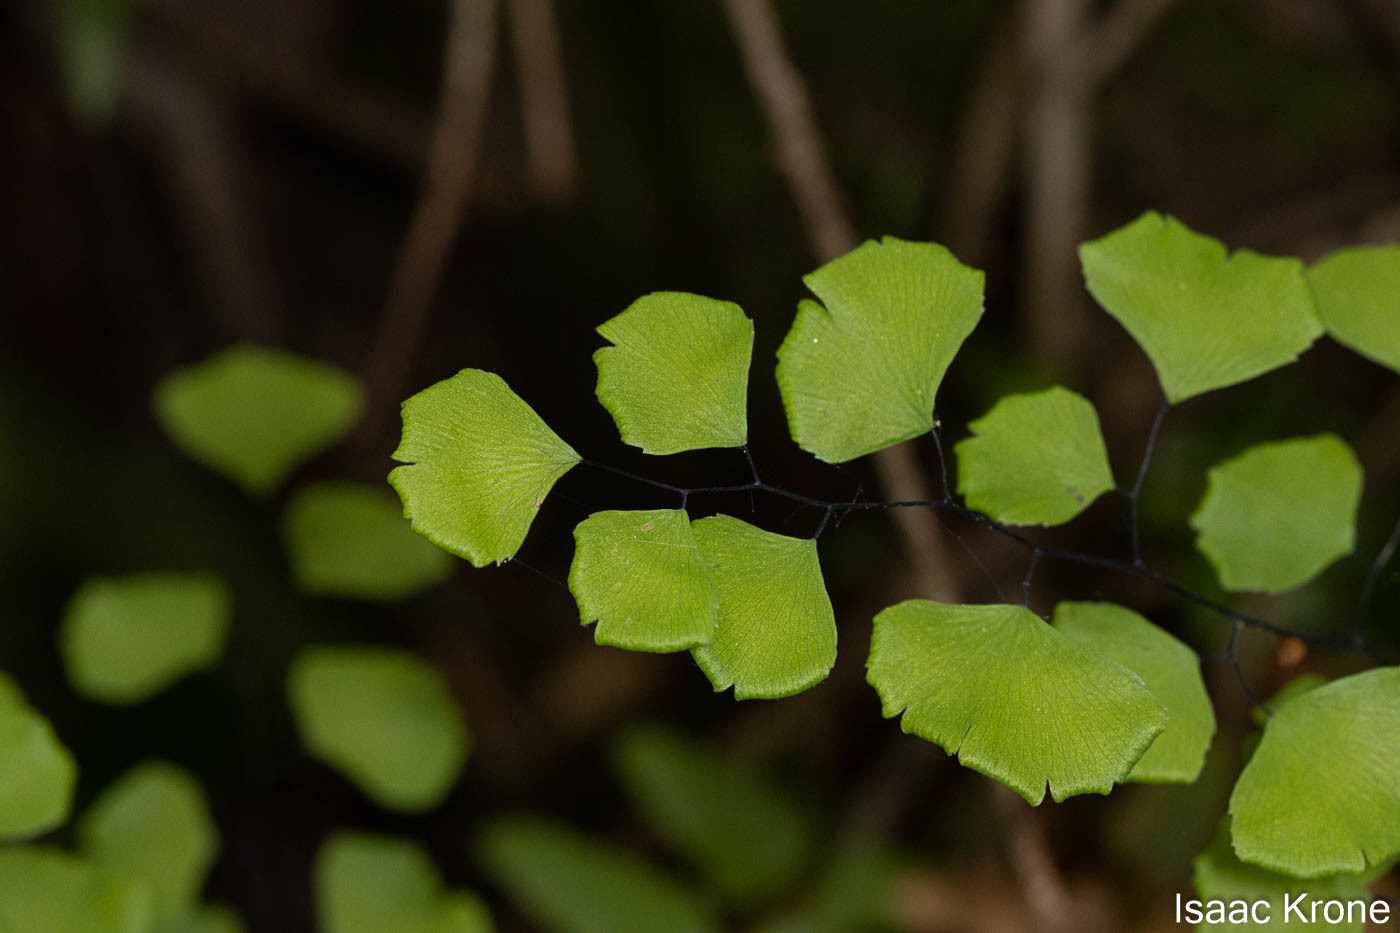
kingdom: Plantae
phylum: Tracheophyta
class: Polypodiopsida
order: Polypodiales
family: Pteridaceae
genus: Adiantum
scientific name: Adiantum jordanii
